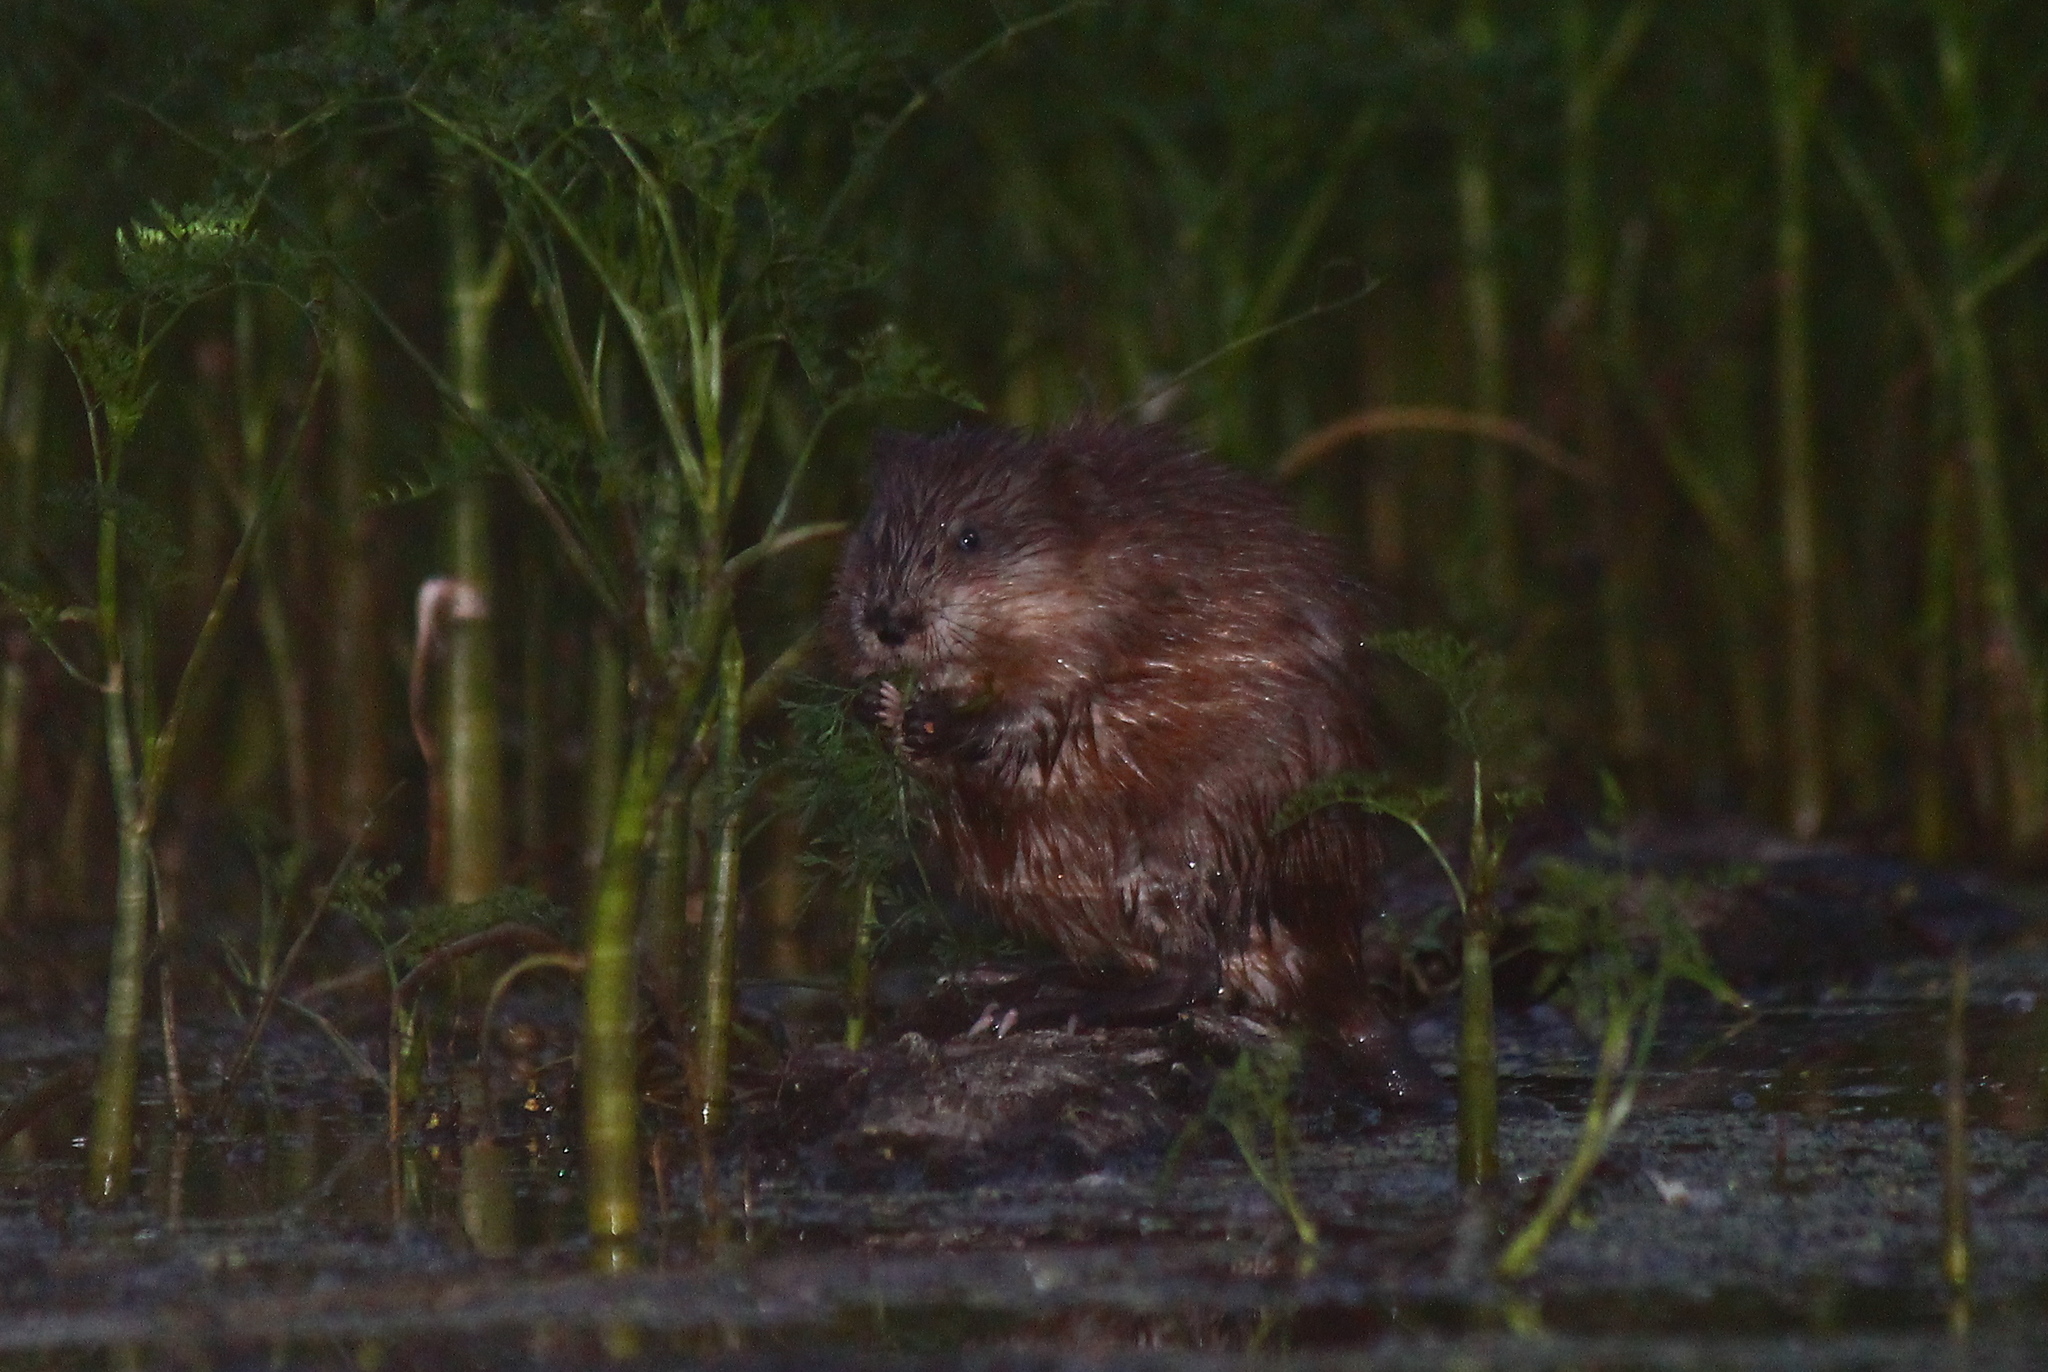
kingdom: Animalia
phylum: Chordata
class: Mammalia
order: Rodentia
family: Cricetidae
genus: Ondatra
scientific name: Ondatra zibethicus
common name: Muskrat
